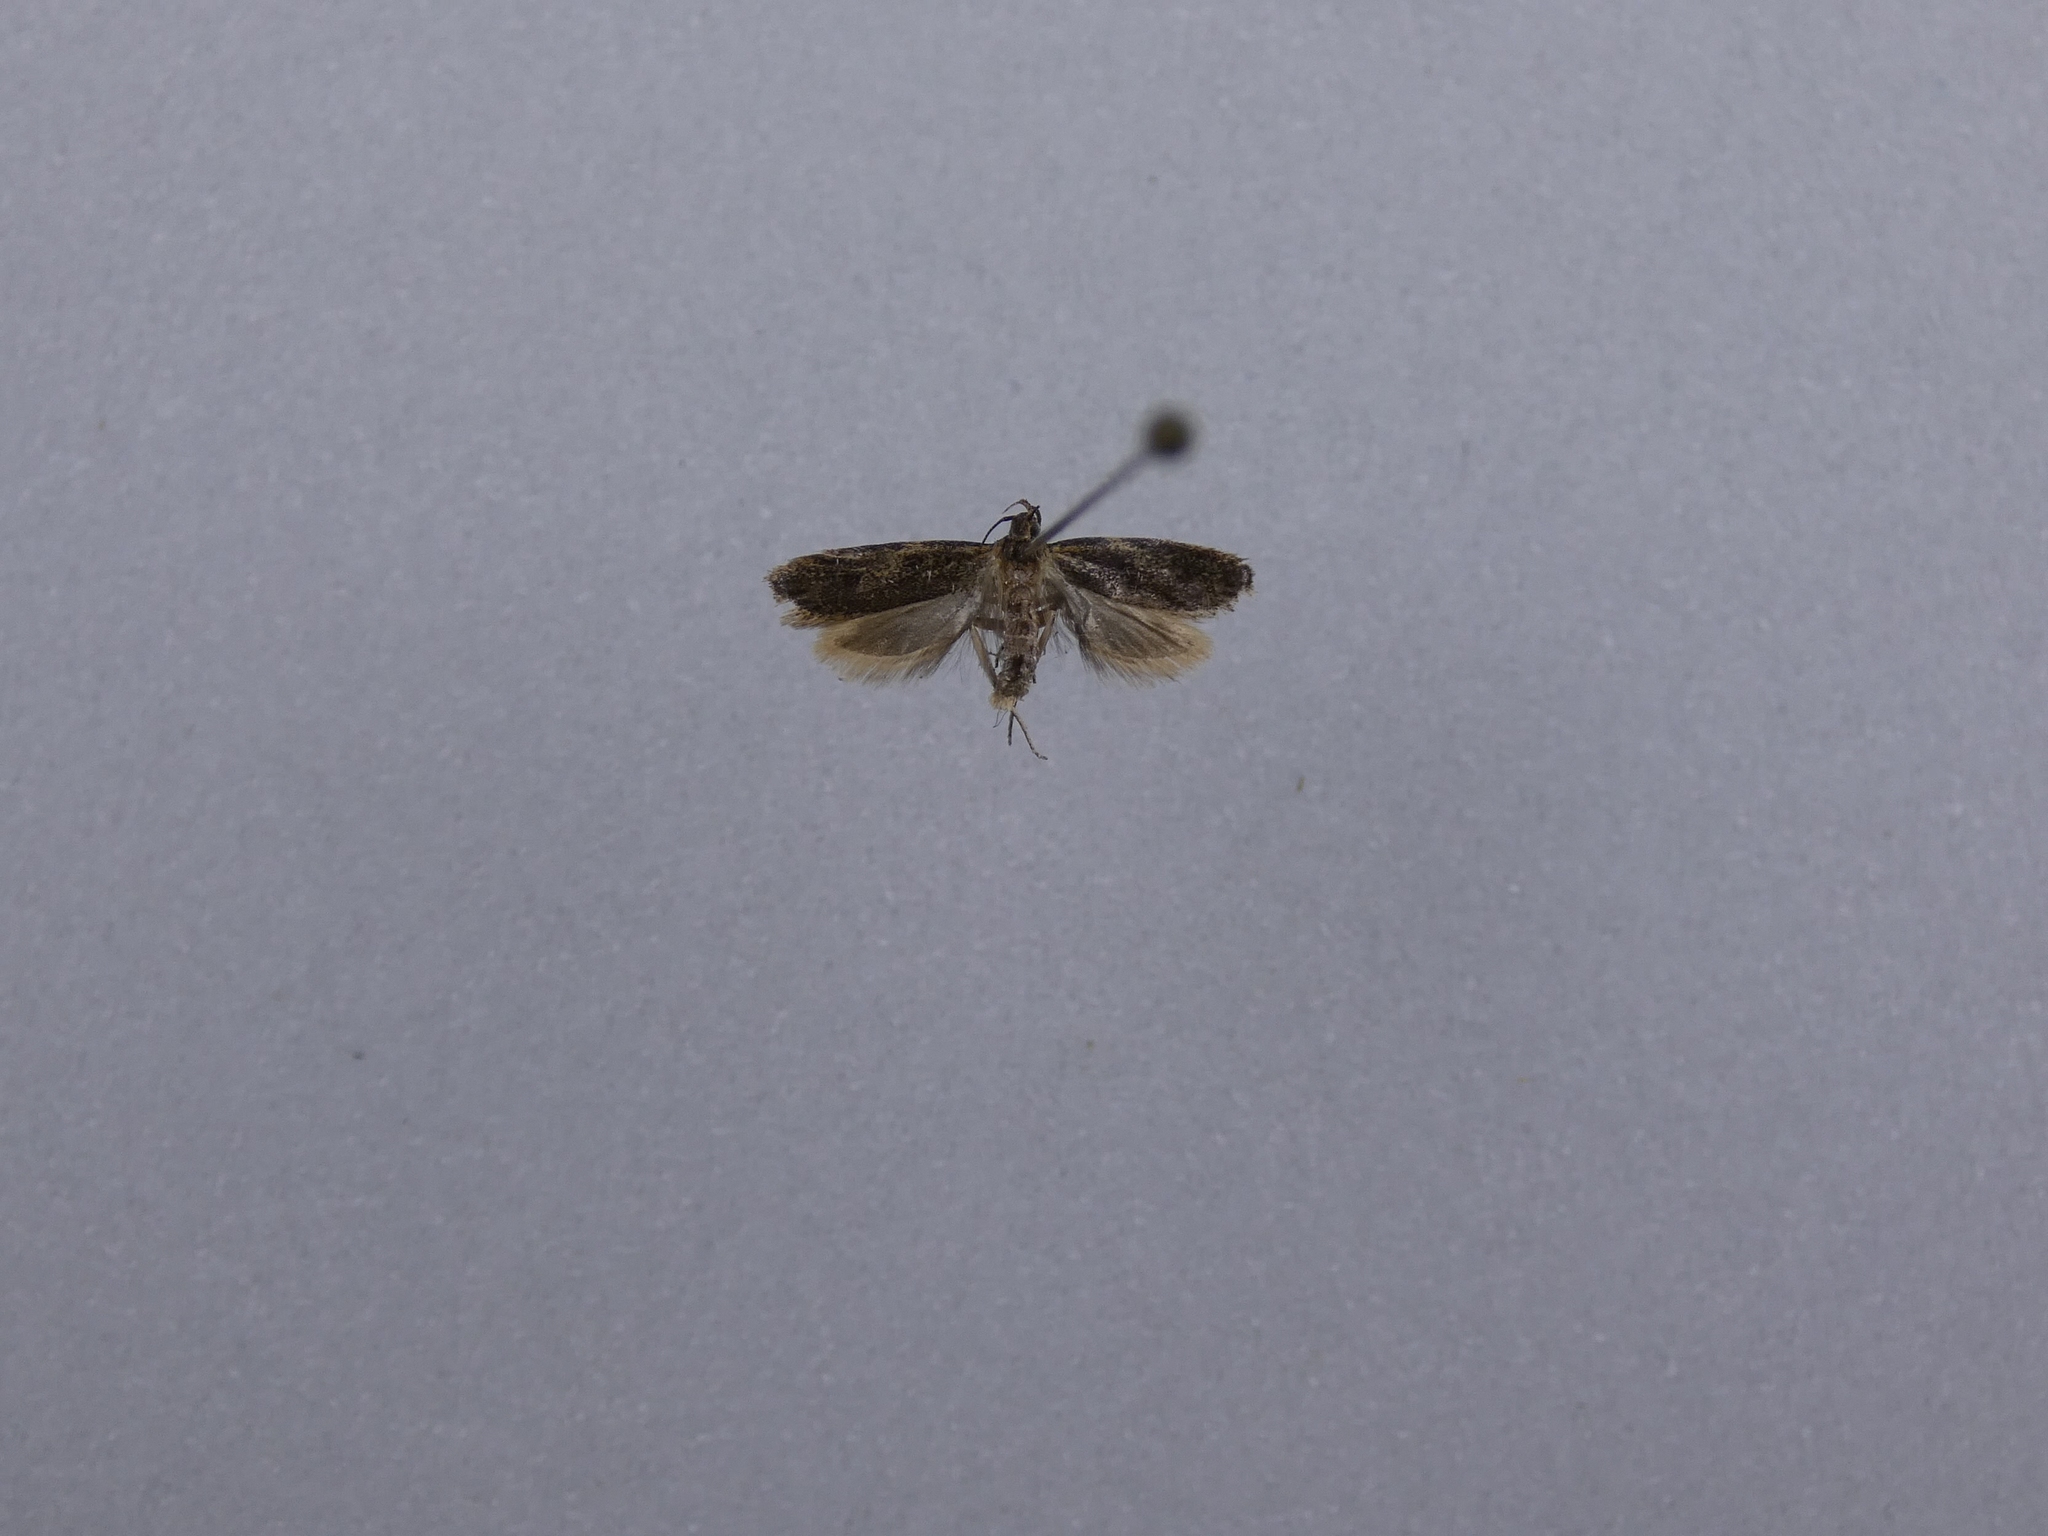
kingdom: Animalia
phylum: Arthropoda
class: Insecta
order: Lepidoptera
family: Oecophoridae
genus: Gymnobathra
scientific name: Gymnobathra tholodella
